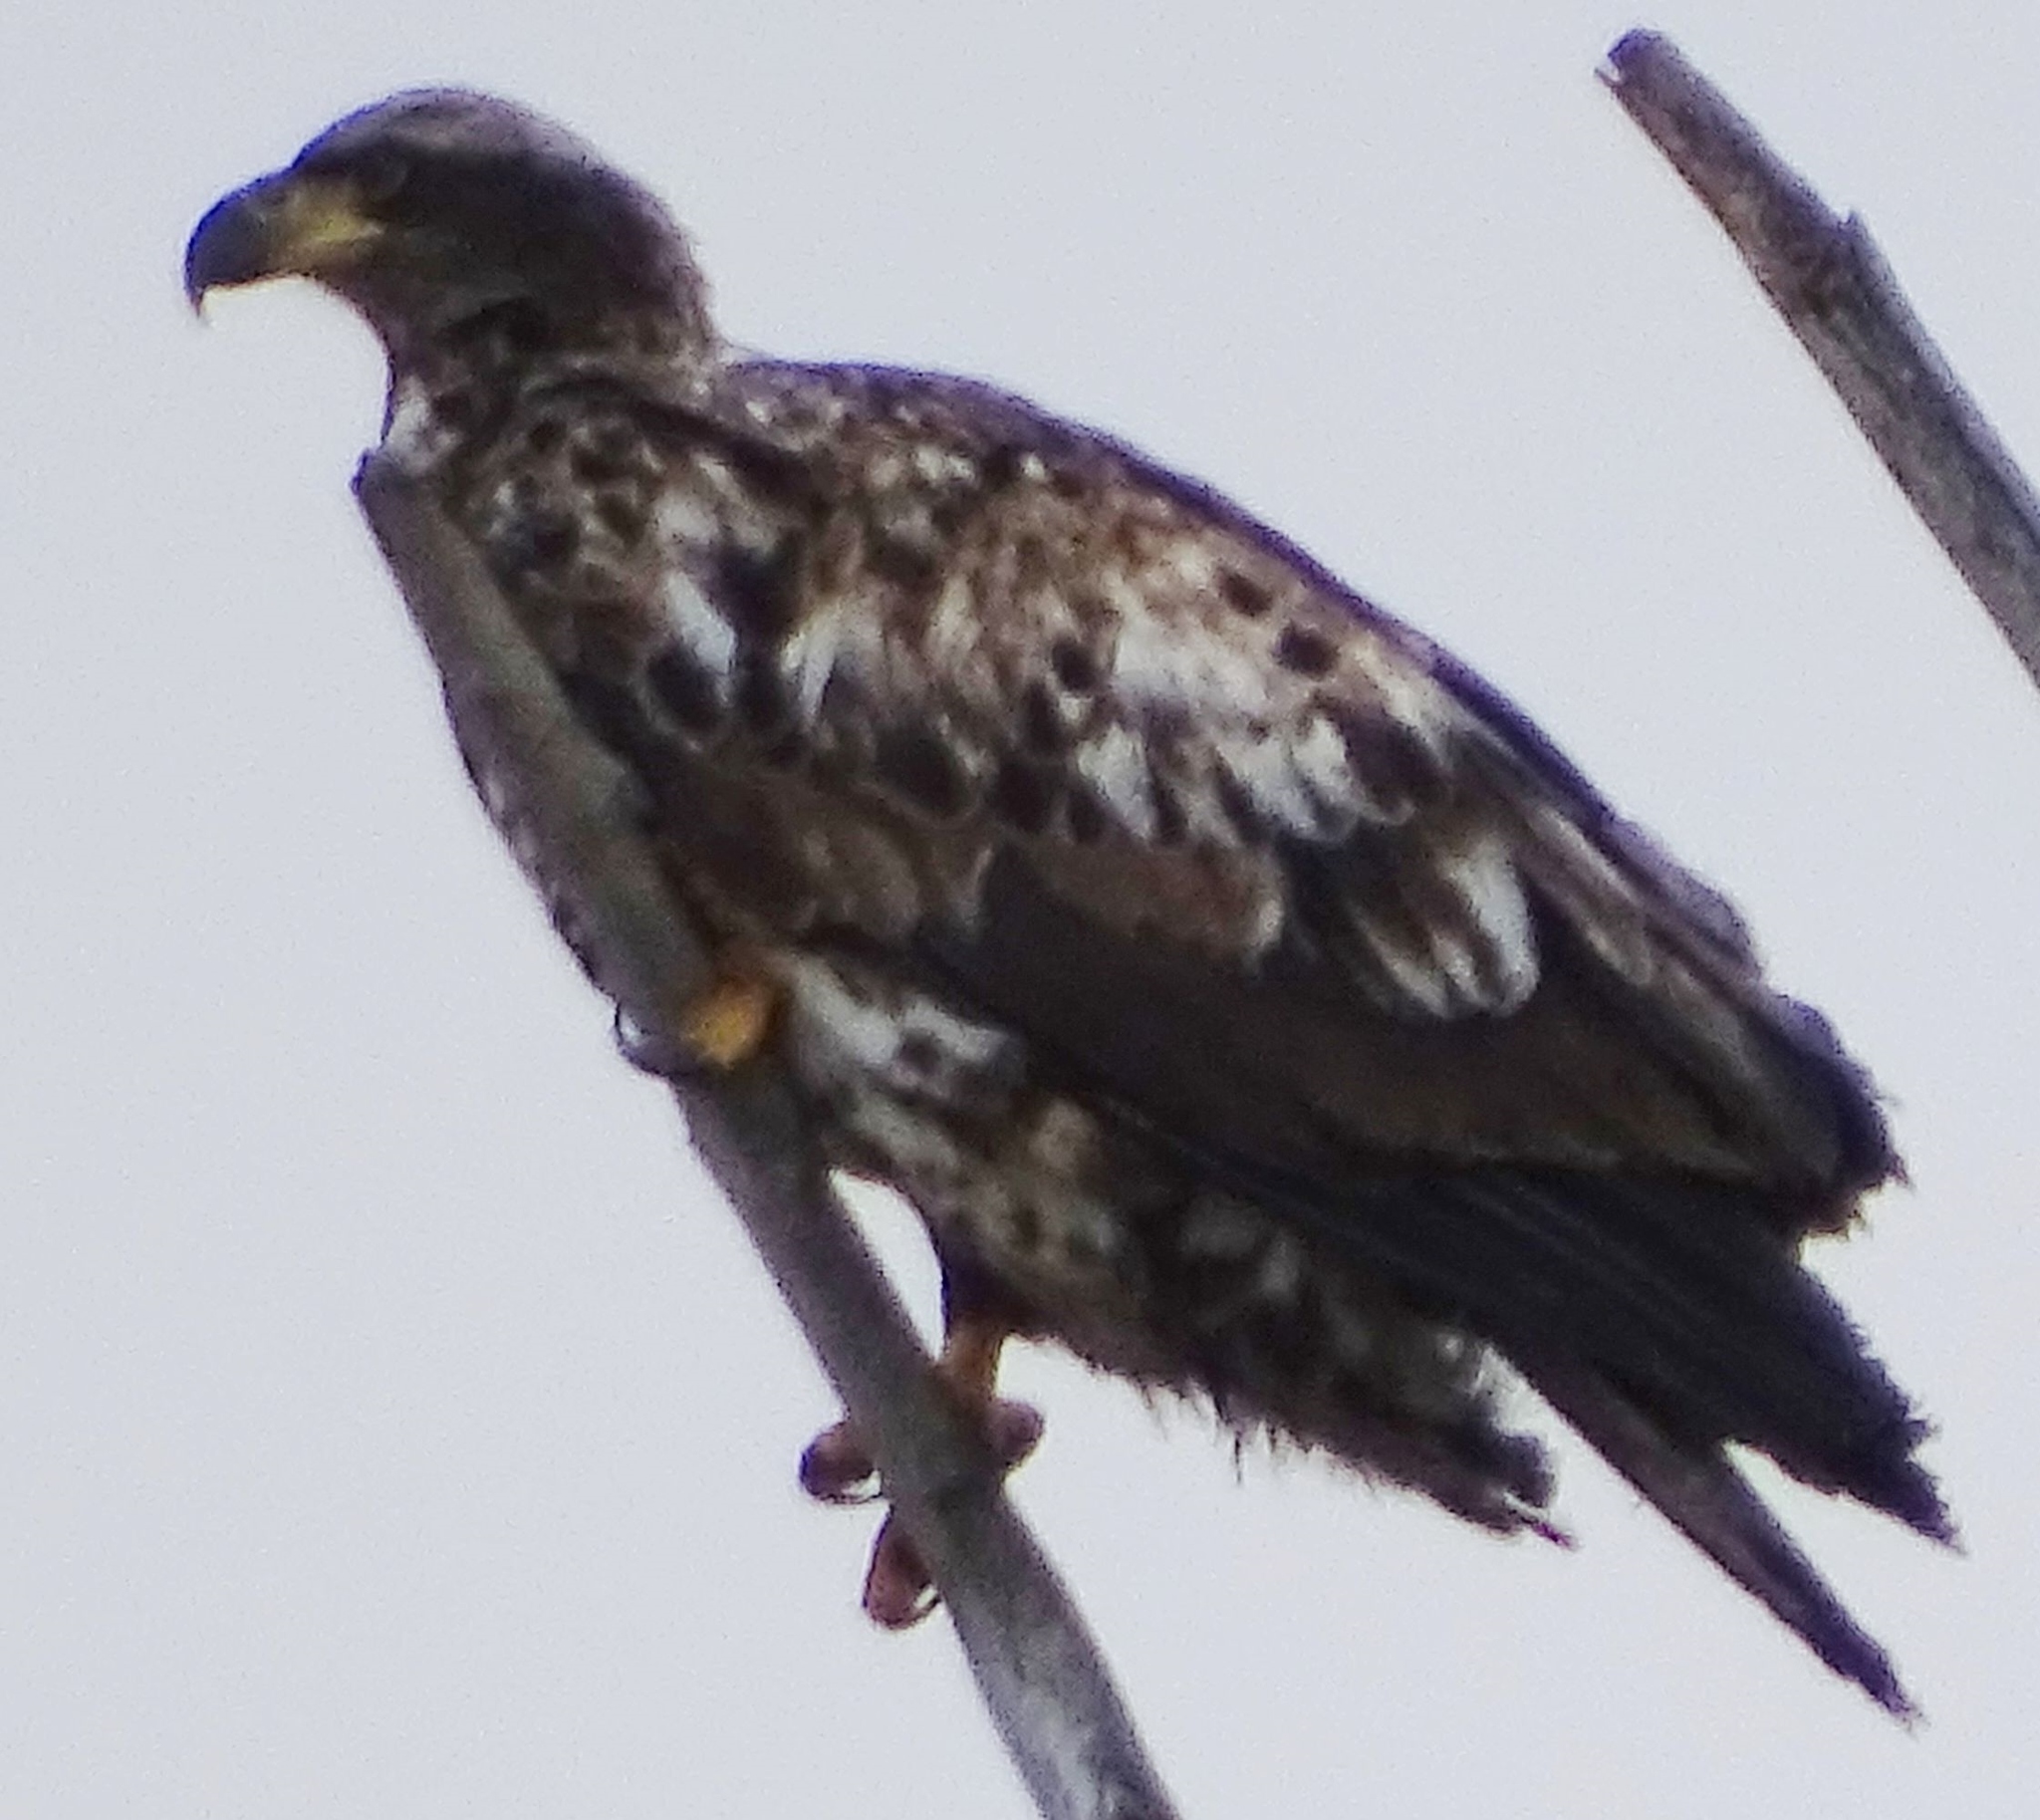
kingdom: Animalia
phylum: Chordata
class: Aves
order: Accipitriformes
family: Accipitridae
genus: Haliaeetus
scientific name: Haliaeetus leucocephalus
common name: Bald eagle
